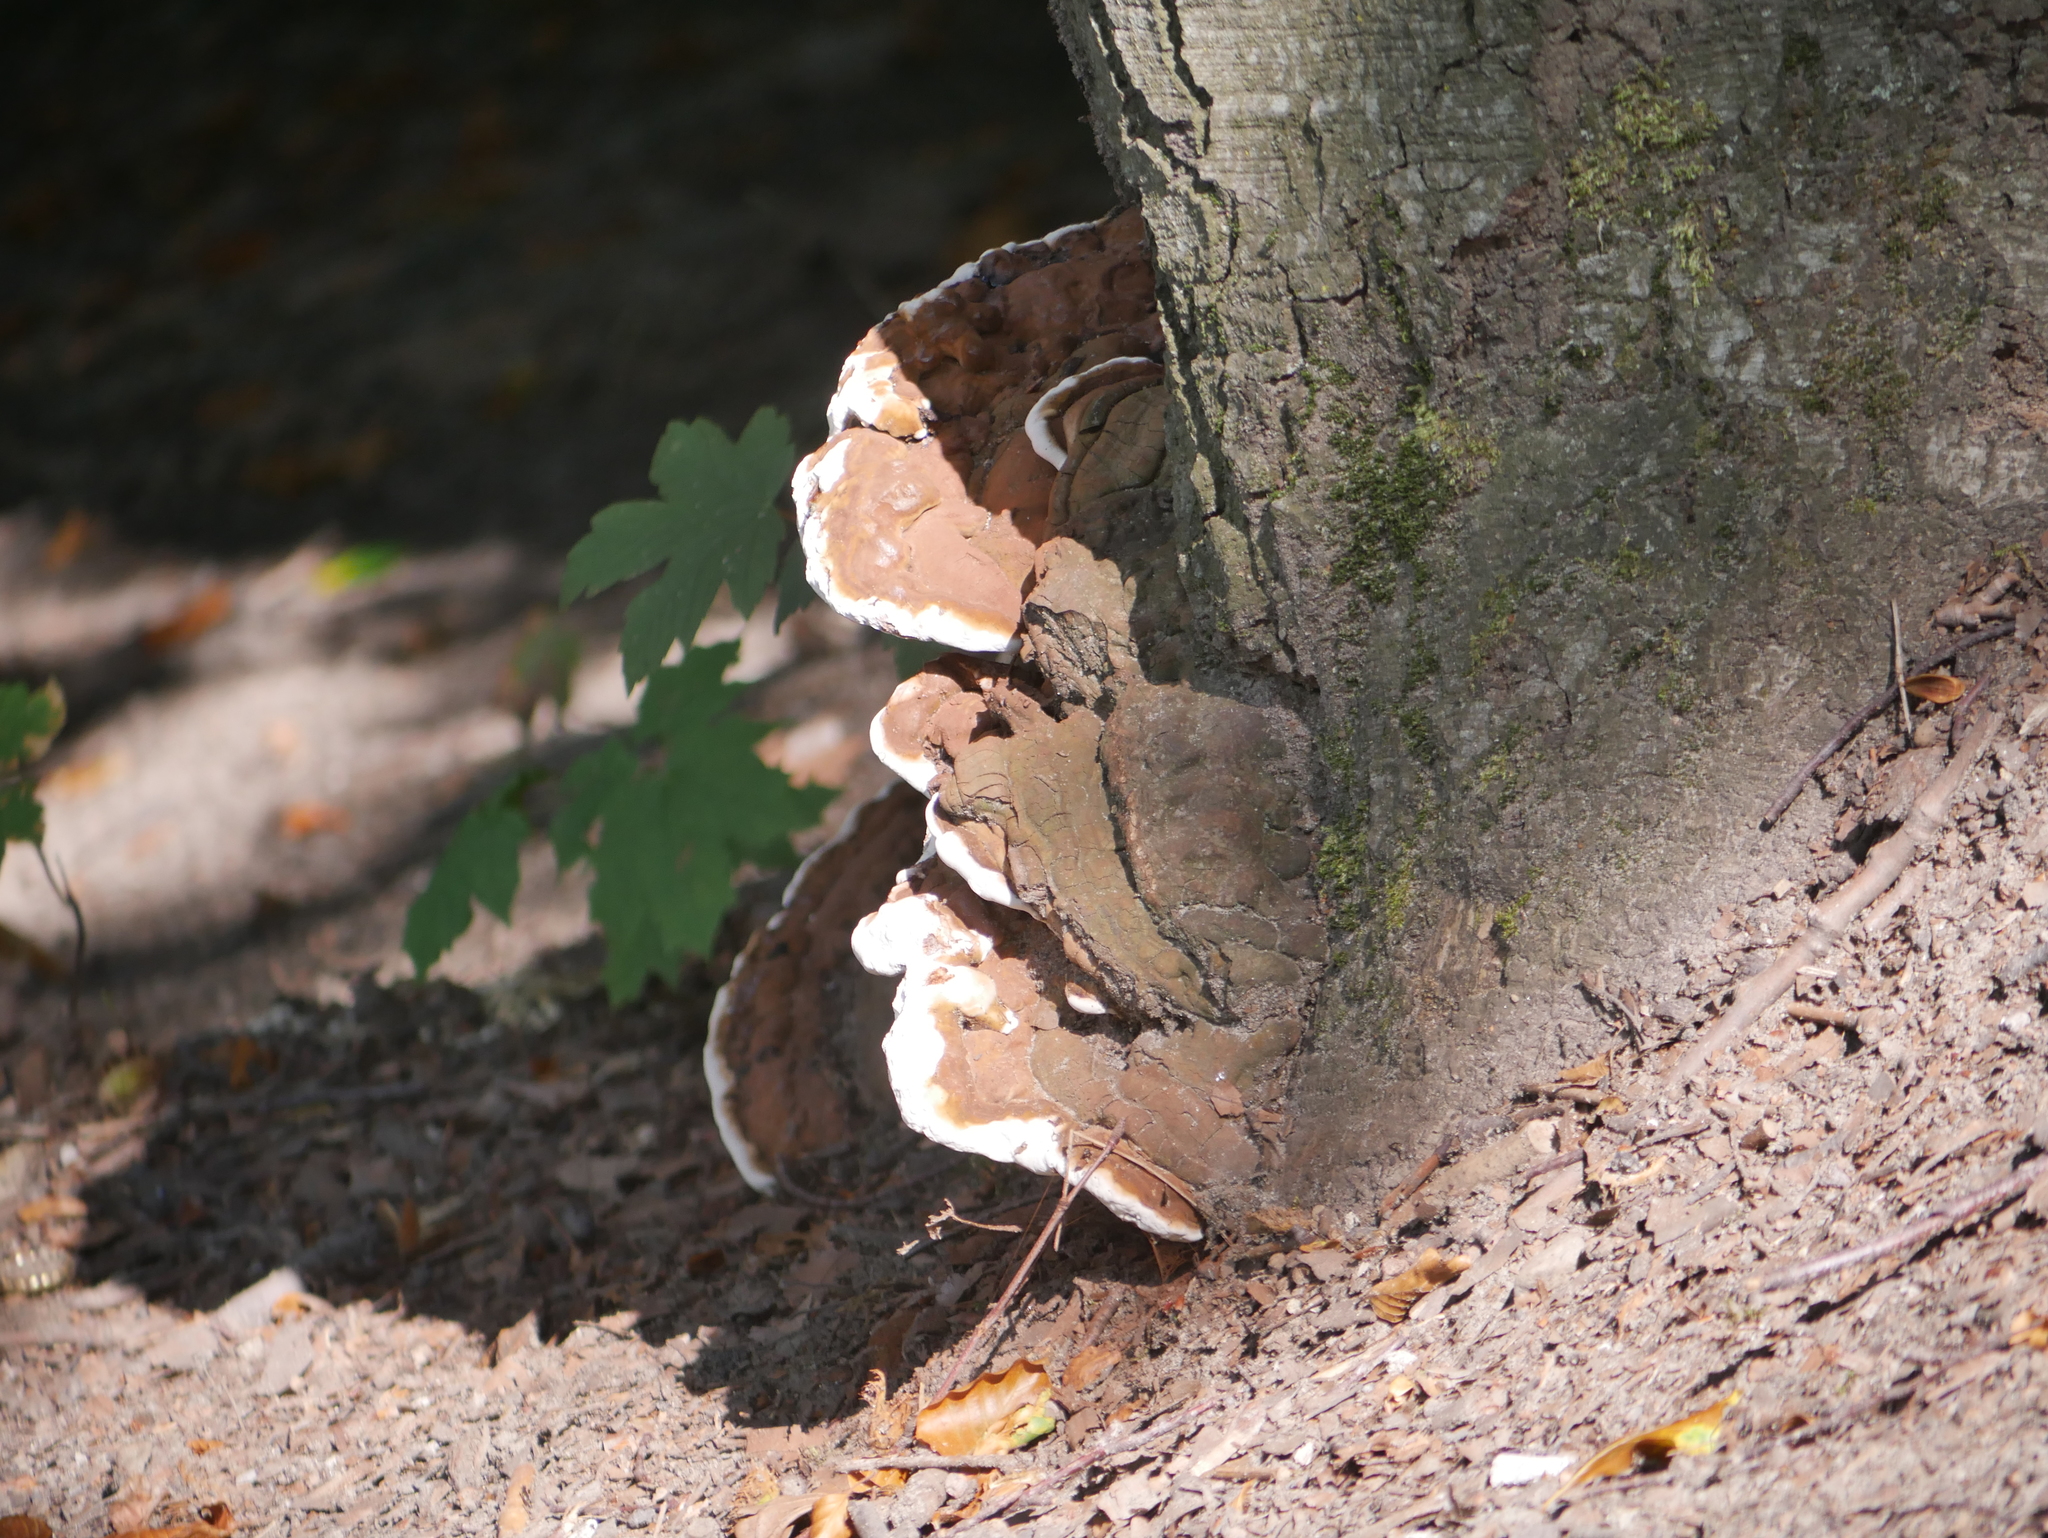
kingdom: Fungi
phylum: Basidiomycota
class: Agaricomycetes
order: Polyporales
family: Polyporaceae
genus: Ganoderma
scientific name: Ganoderma applanatum
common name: Artist's bracket
